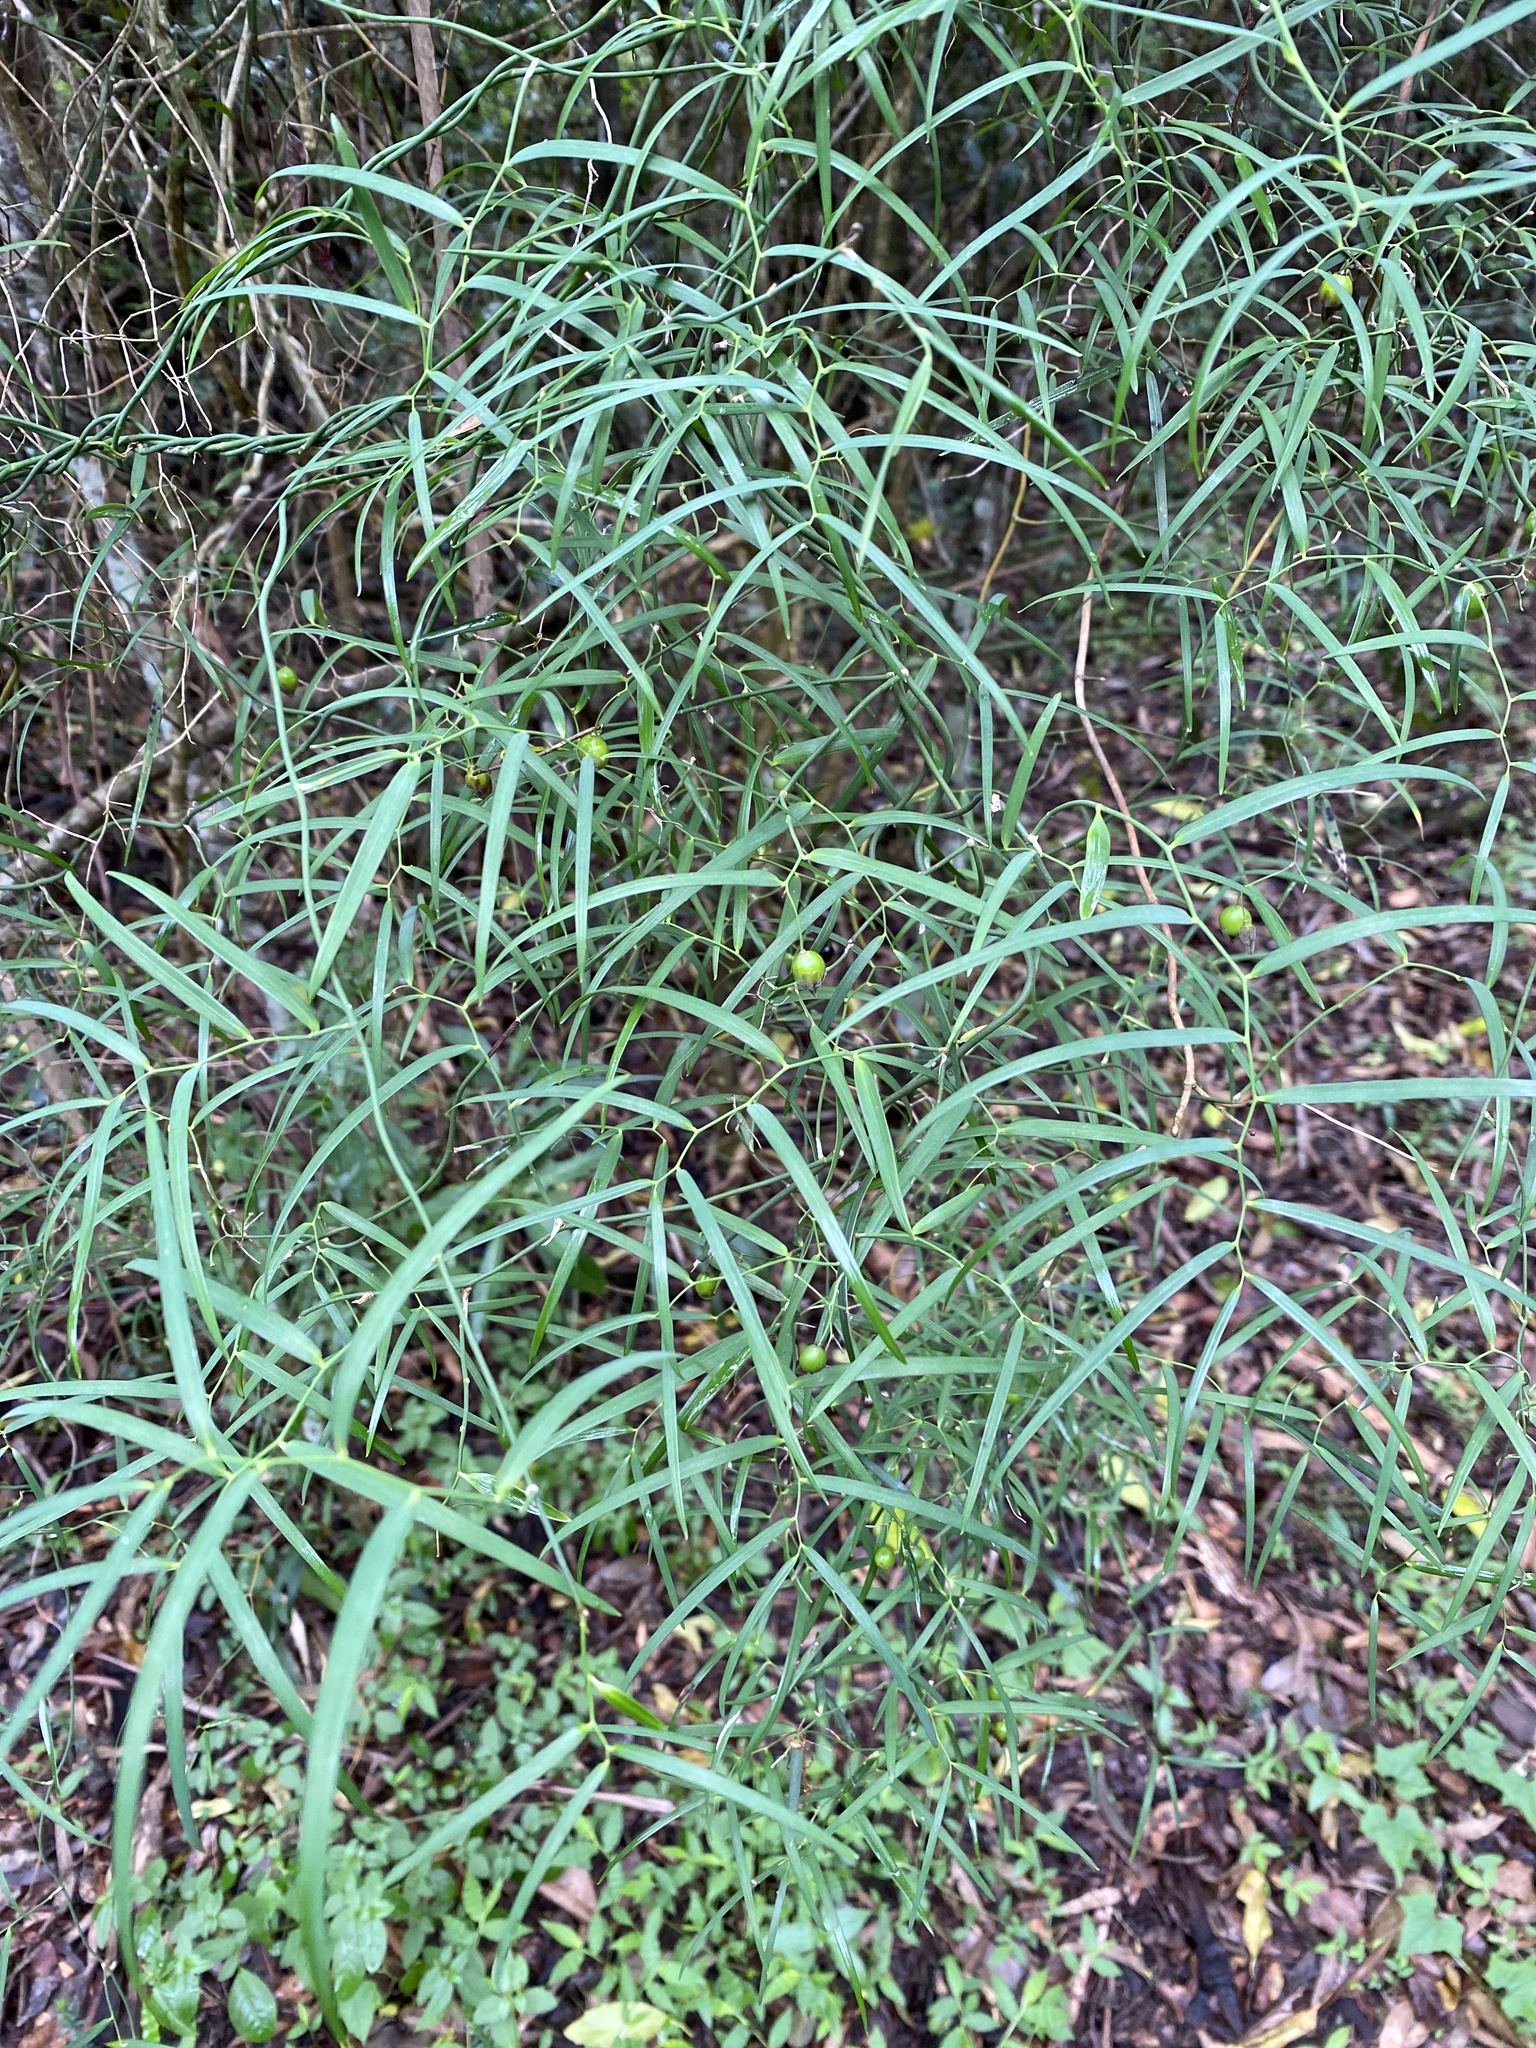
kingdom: Plantae
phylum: Tracheophyta
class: Liliopsida
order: Asparagales
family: Asparagaceae
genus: Eustrephus
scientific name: Eustrephus latifolius
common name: Orangevine
